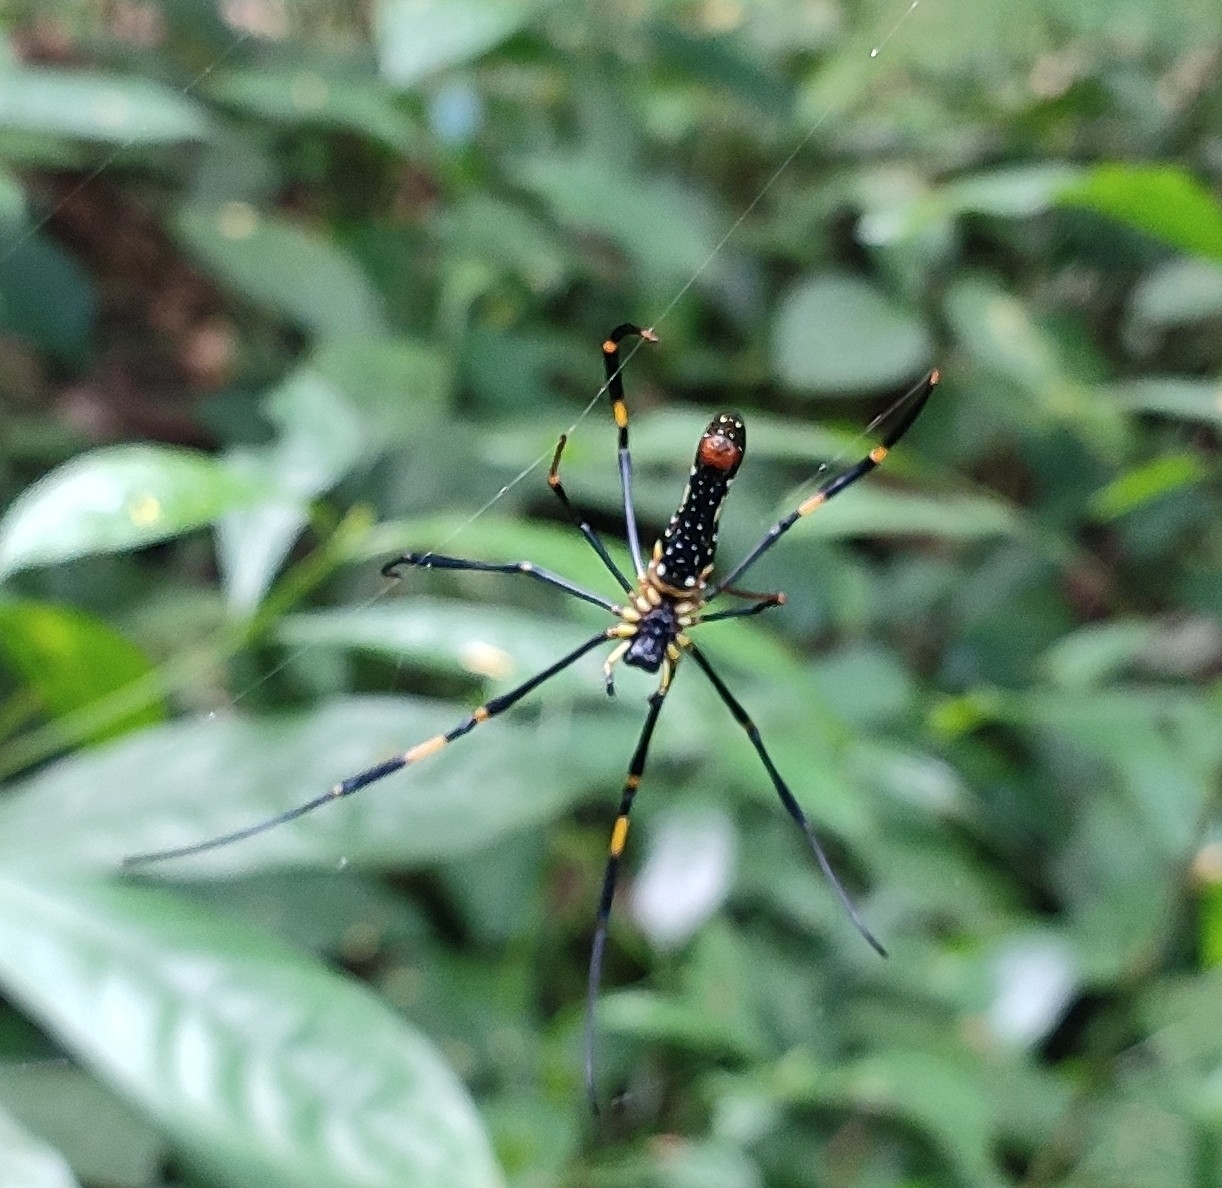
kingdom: Animalia
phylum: Arthropoda
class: Arachnida
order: Araneae
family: Araneidae
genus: Nephila
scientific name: Nephila pilipes
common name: Giant golden orb weaver
